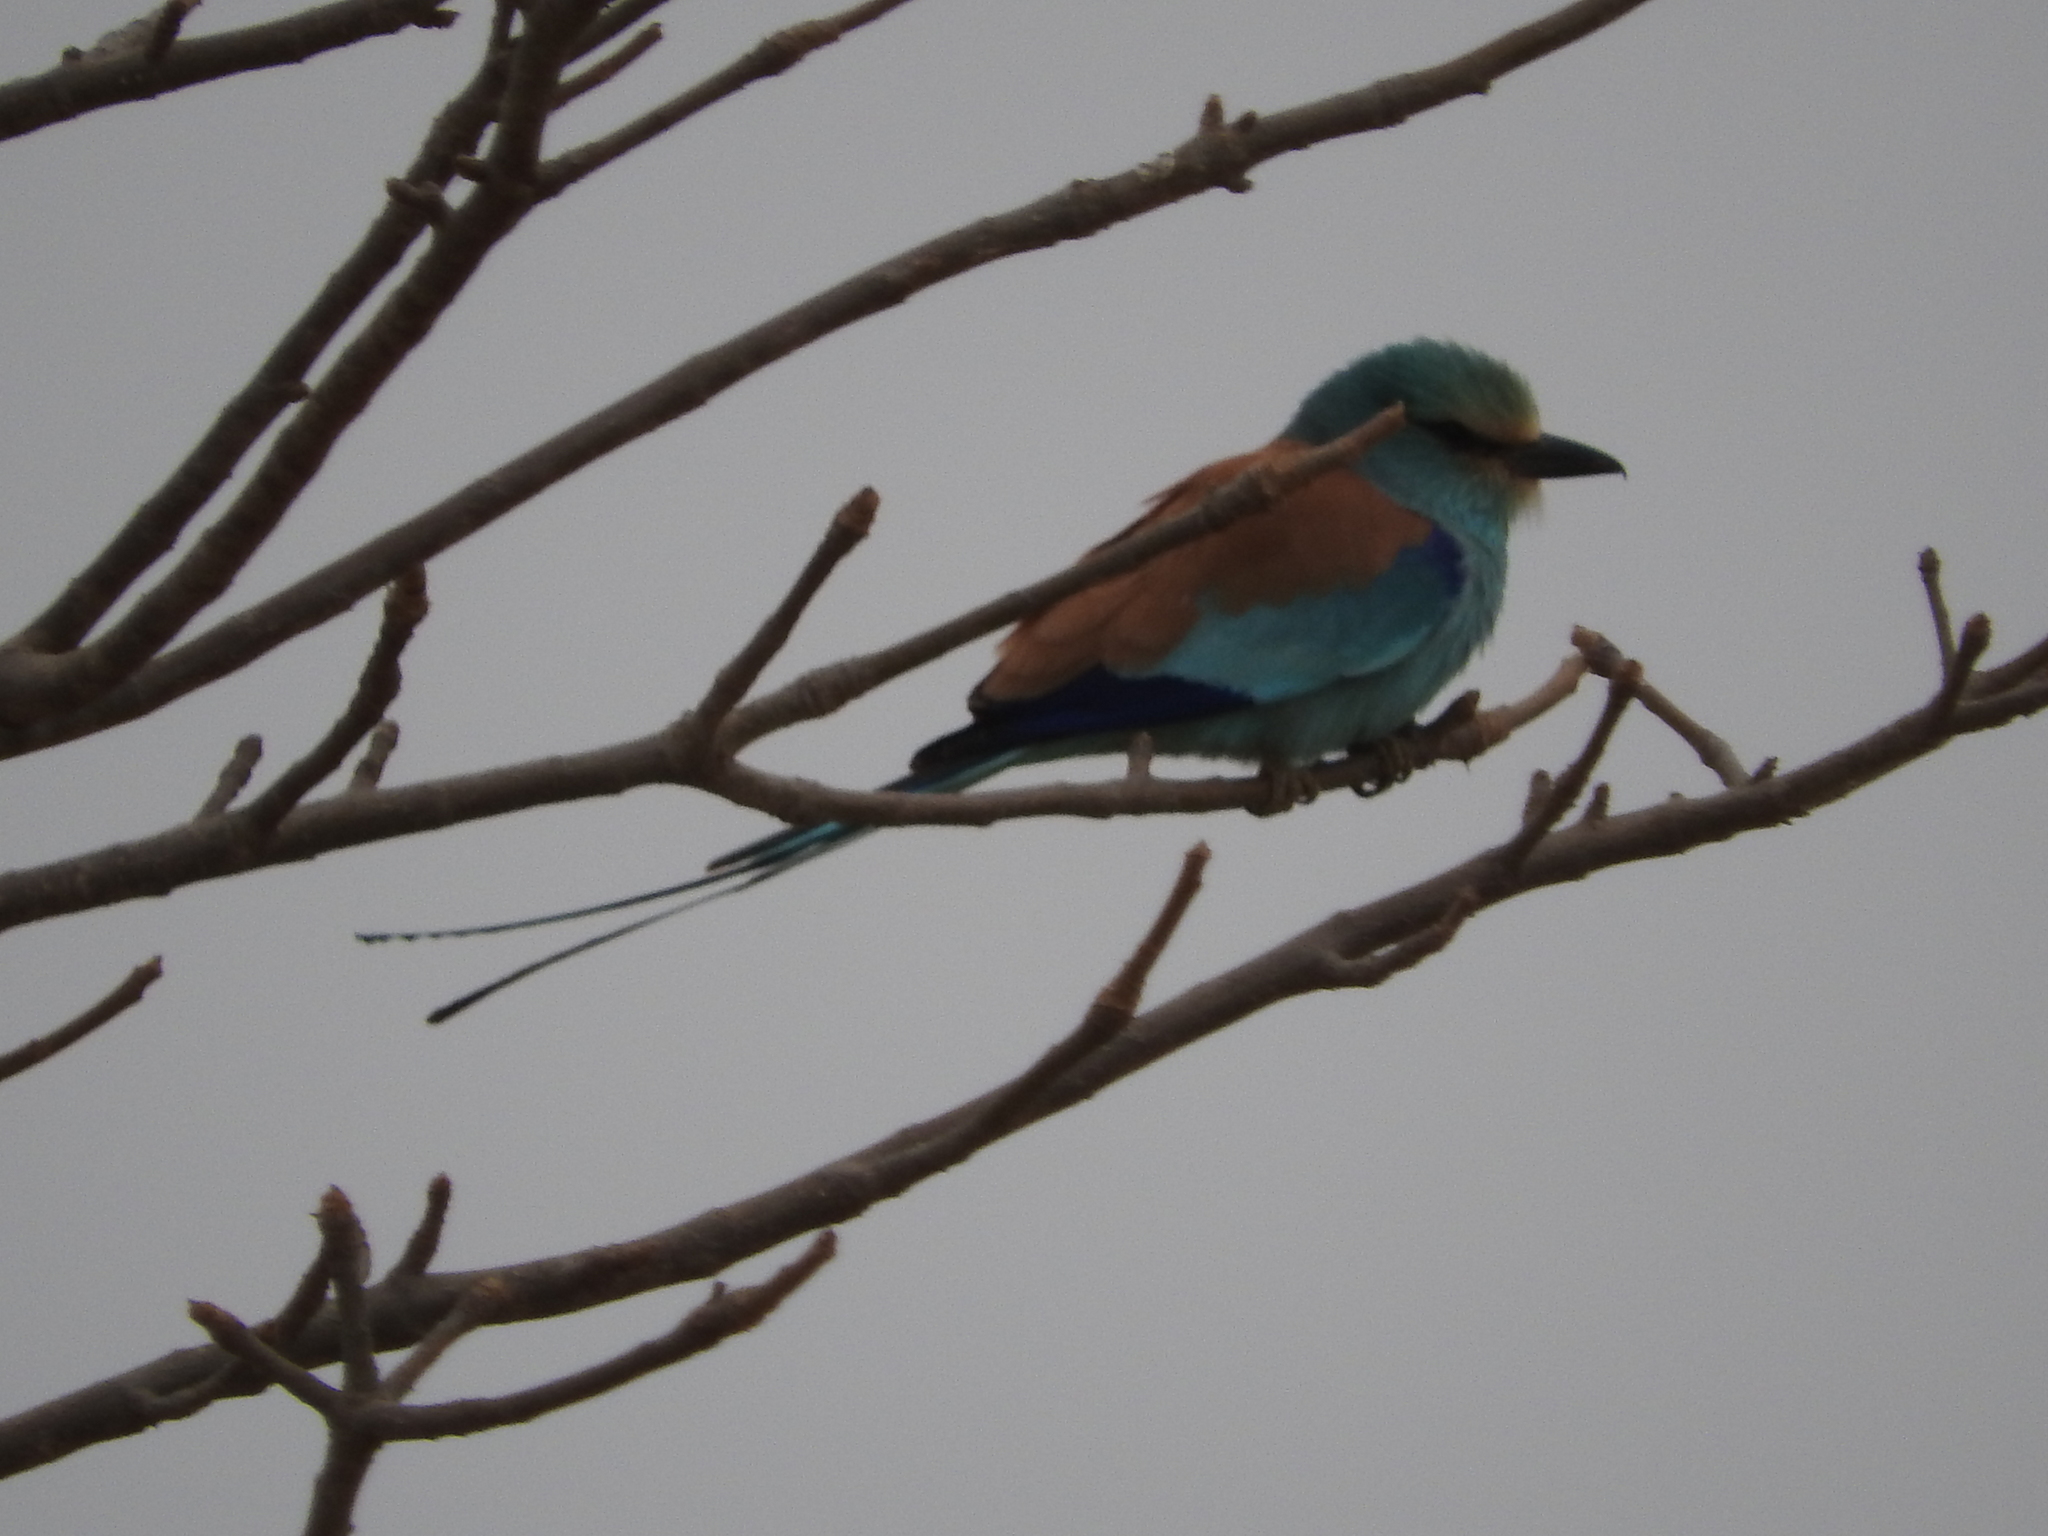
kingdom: Animalia
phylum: Chordata
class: Aves
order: Coraciiformes
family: Coraciidae
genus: Coracias
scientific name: Coracias abyssinicus
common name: Abyssinian roller
